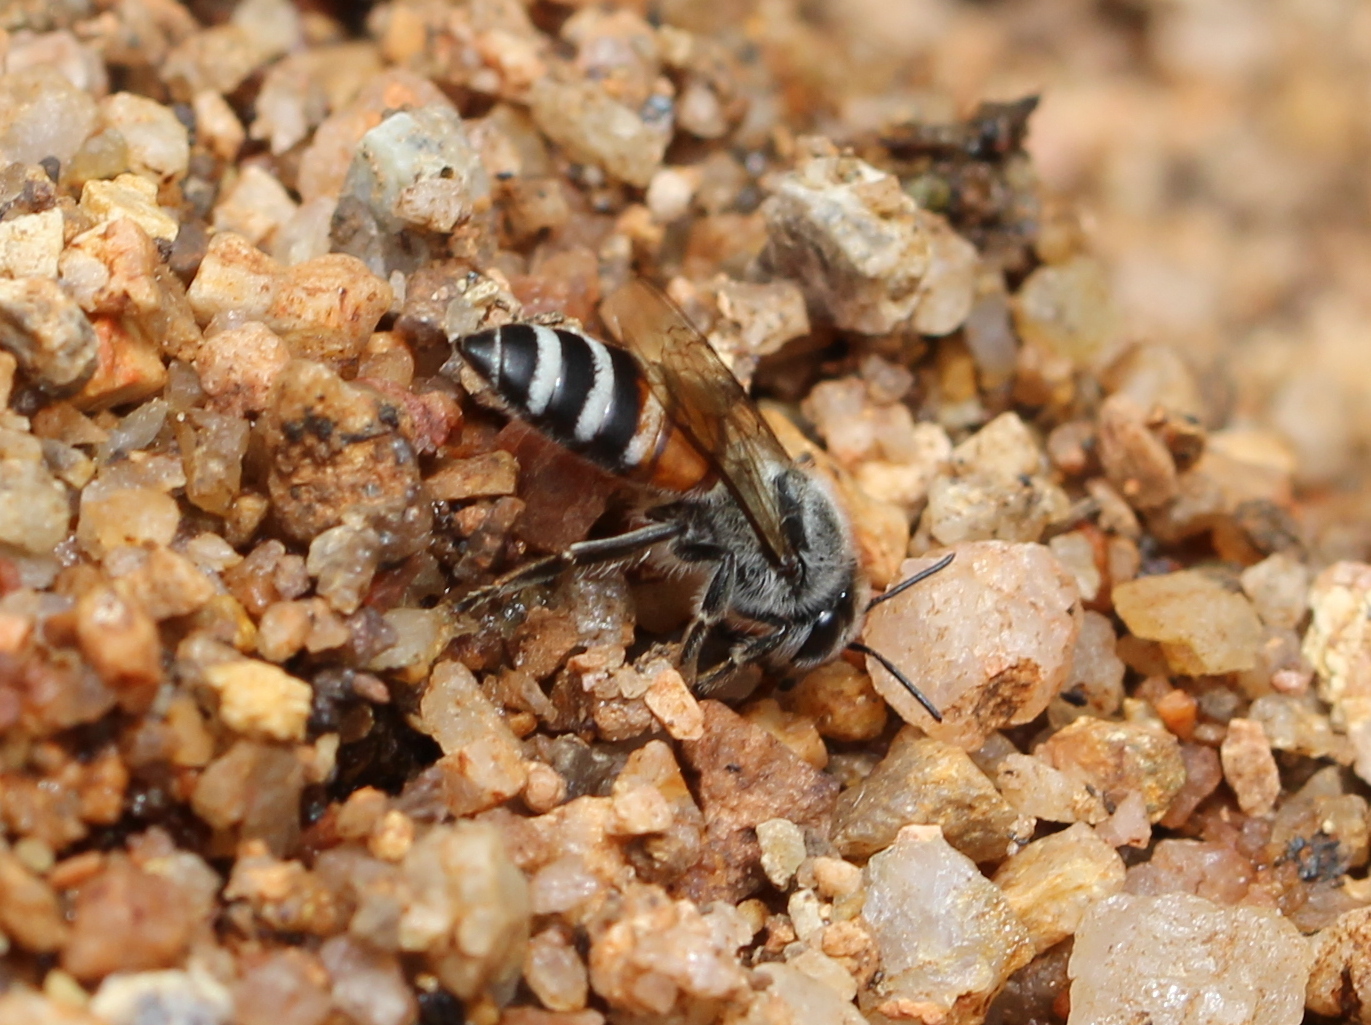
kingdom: Animalia
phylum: Arthropoda
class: Insecta
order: Hymenoptera
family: Apidae
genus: Apis
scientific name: Apis florea
